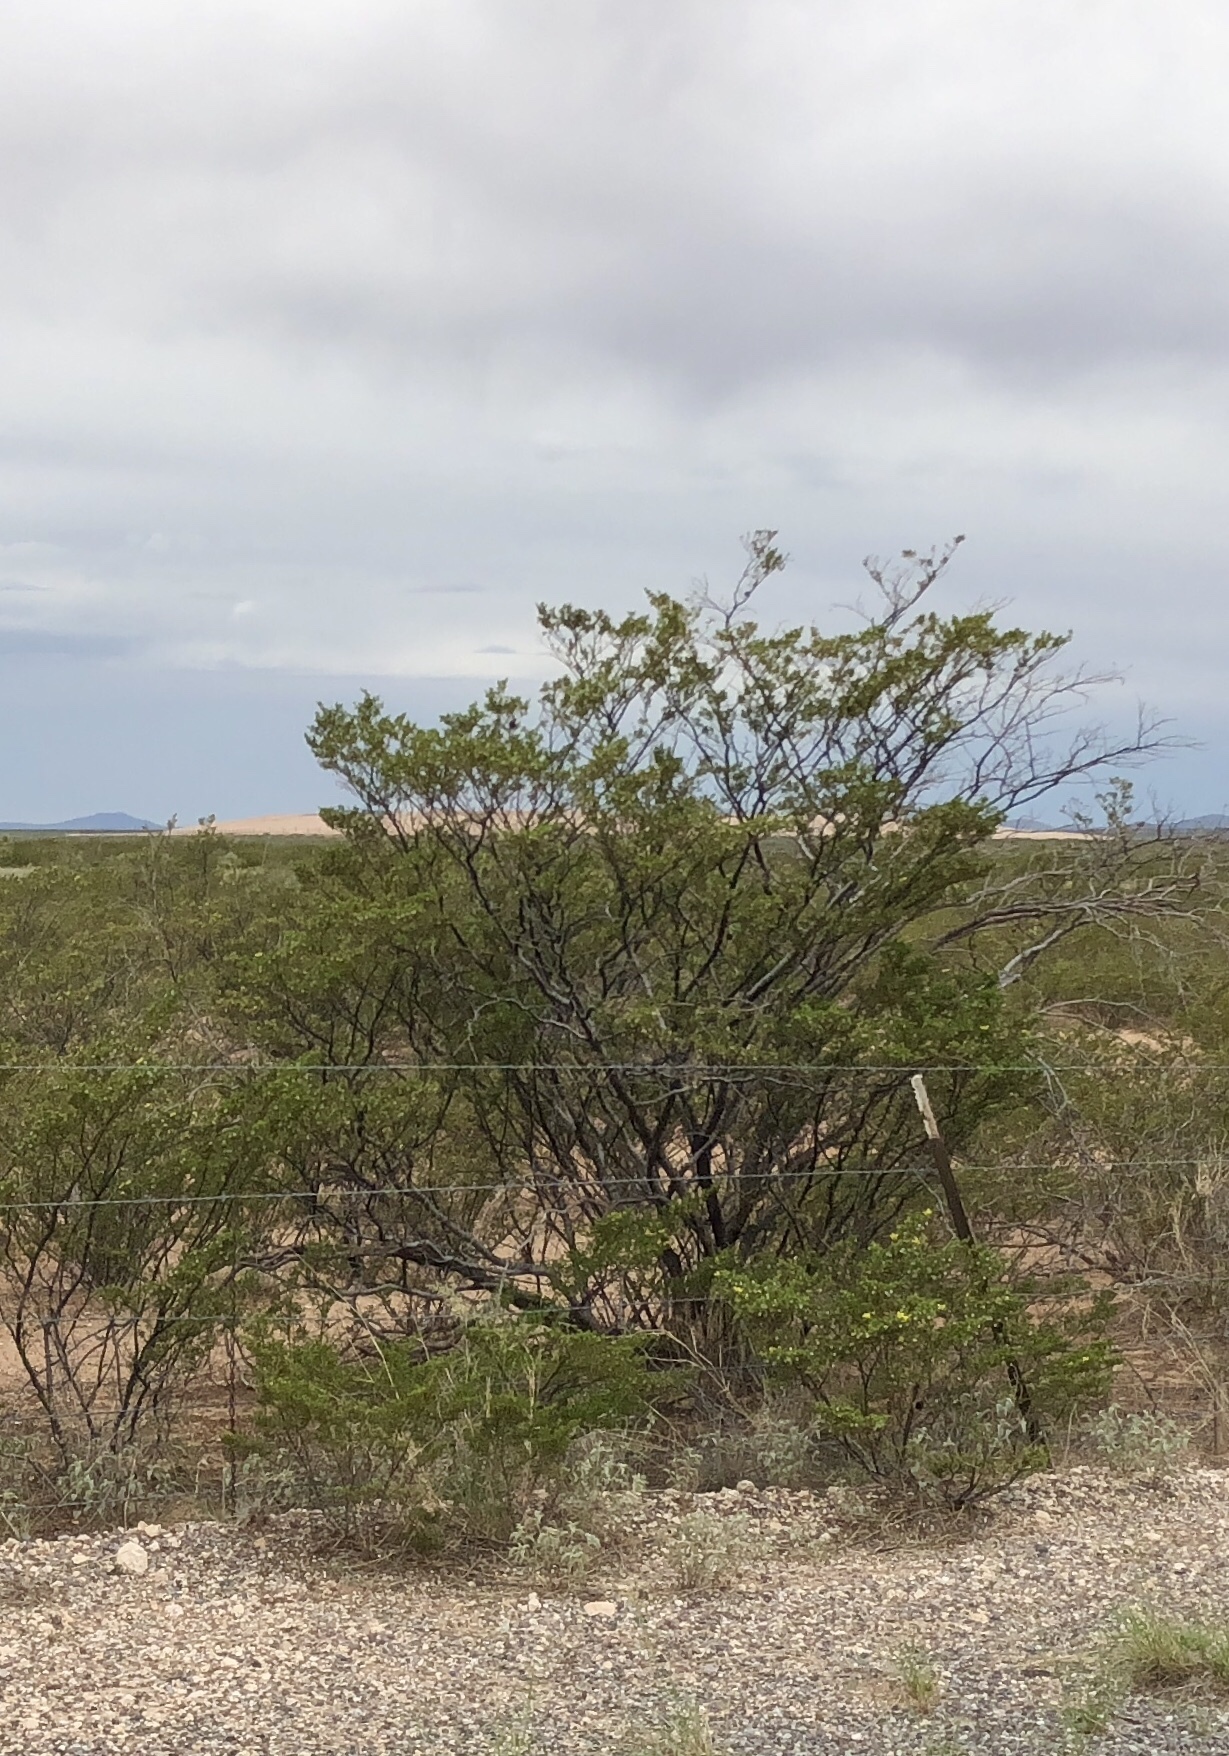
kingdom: Plantae
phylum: Tracheophyta
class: Magnoliopsida
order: Zygophyllales
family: Zygophyllaceae
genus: Larrea
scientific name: Larrea tridentata
